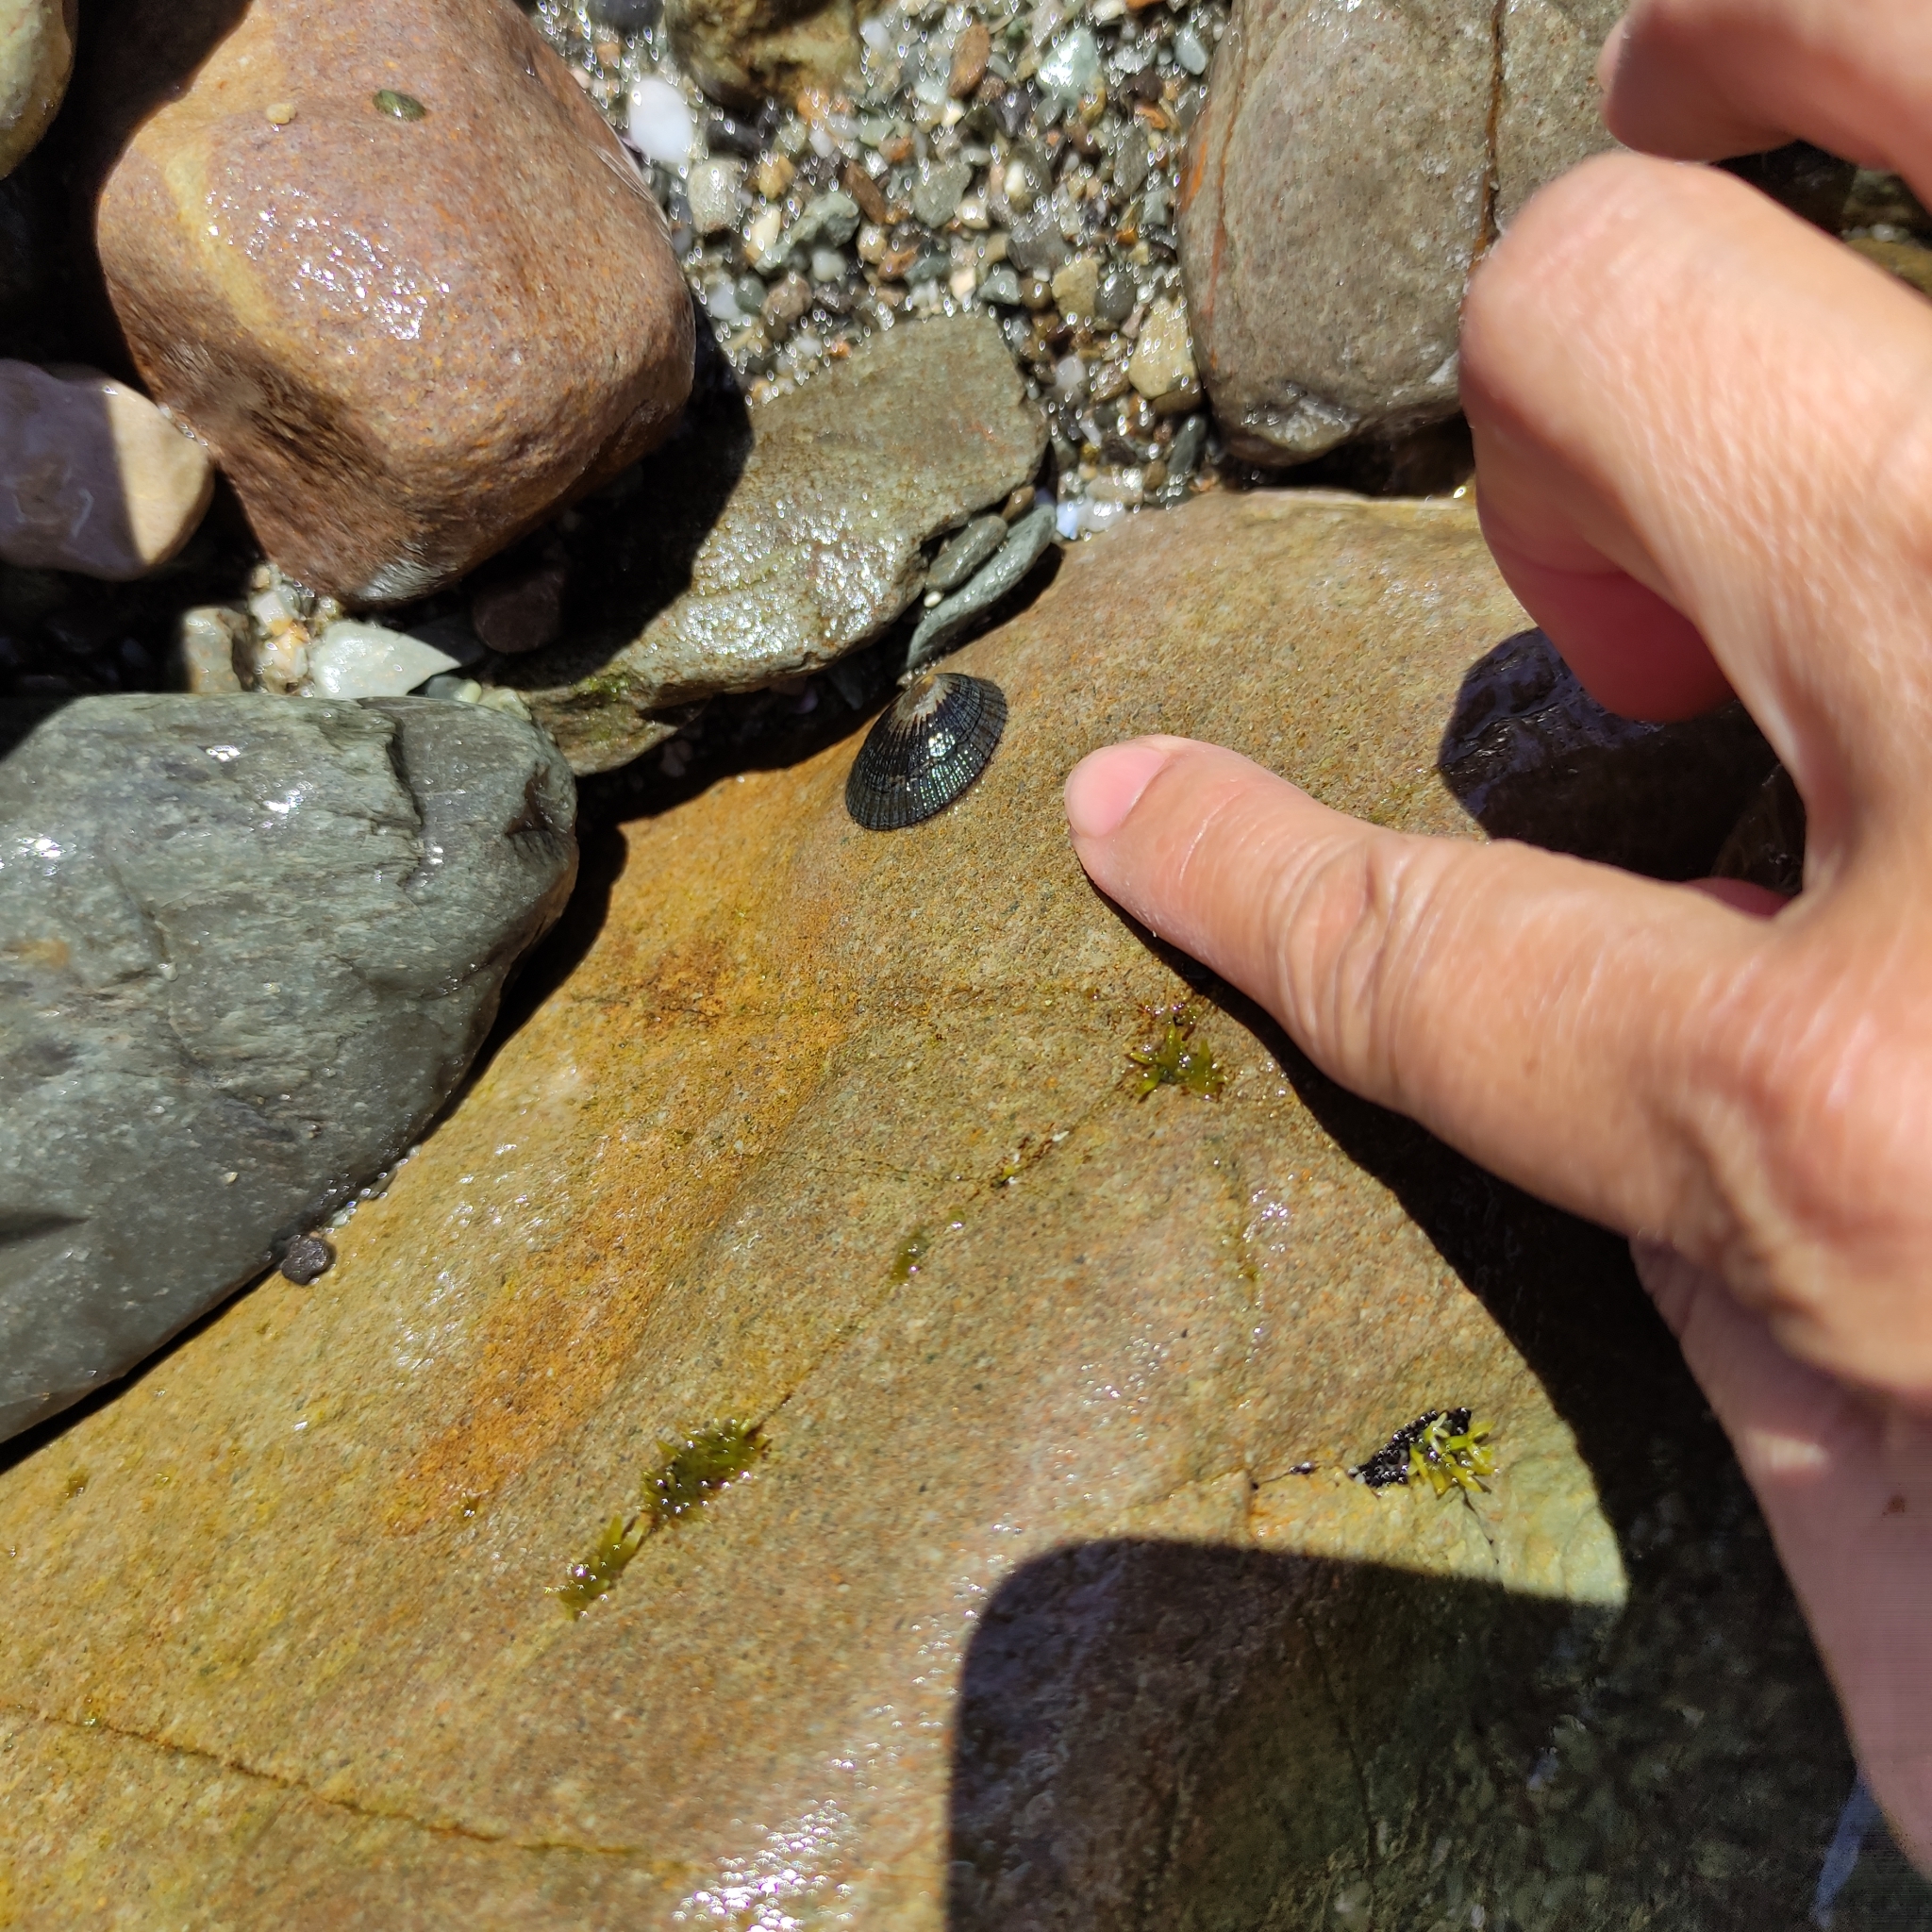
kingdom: Animalia
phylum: Mollusca
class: Gastropoda
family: Nacellidae
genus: Cellana
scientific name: Cellana radians
